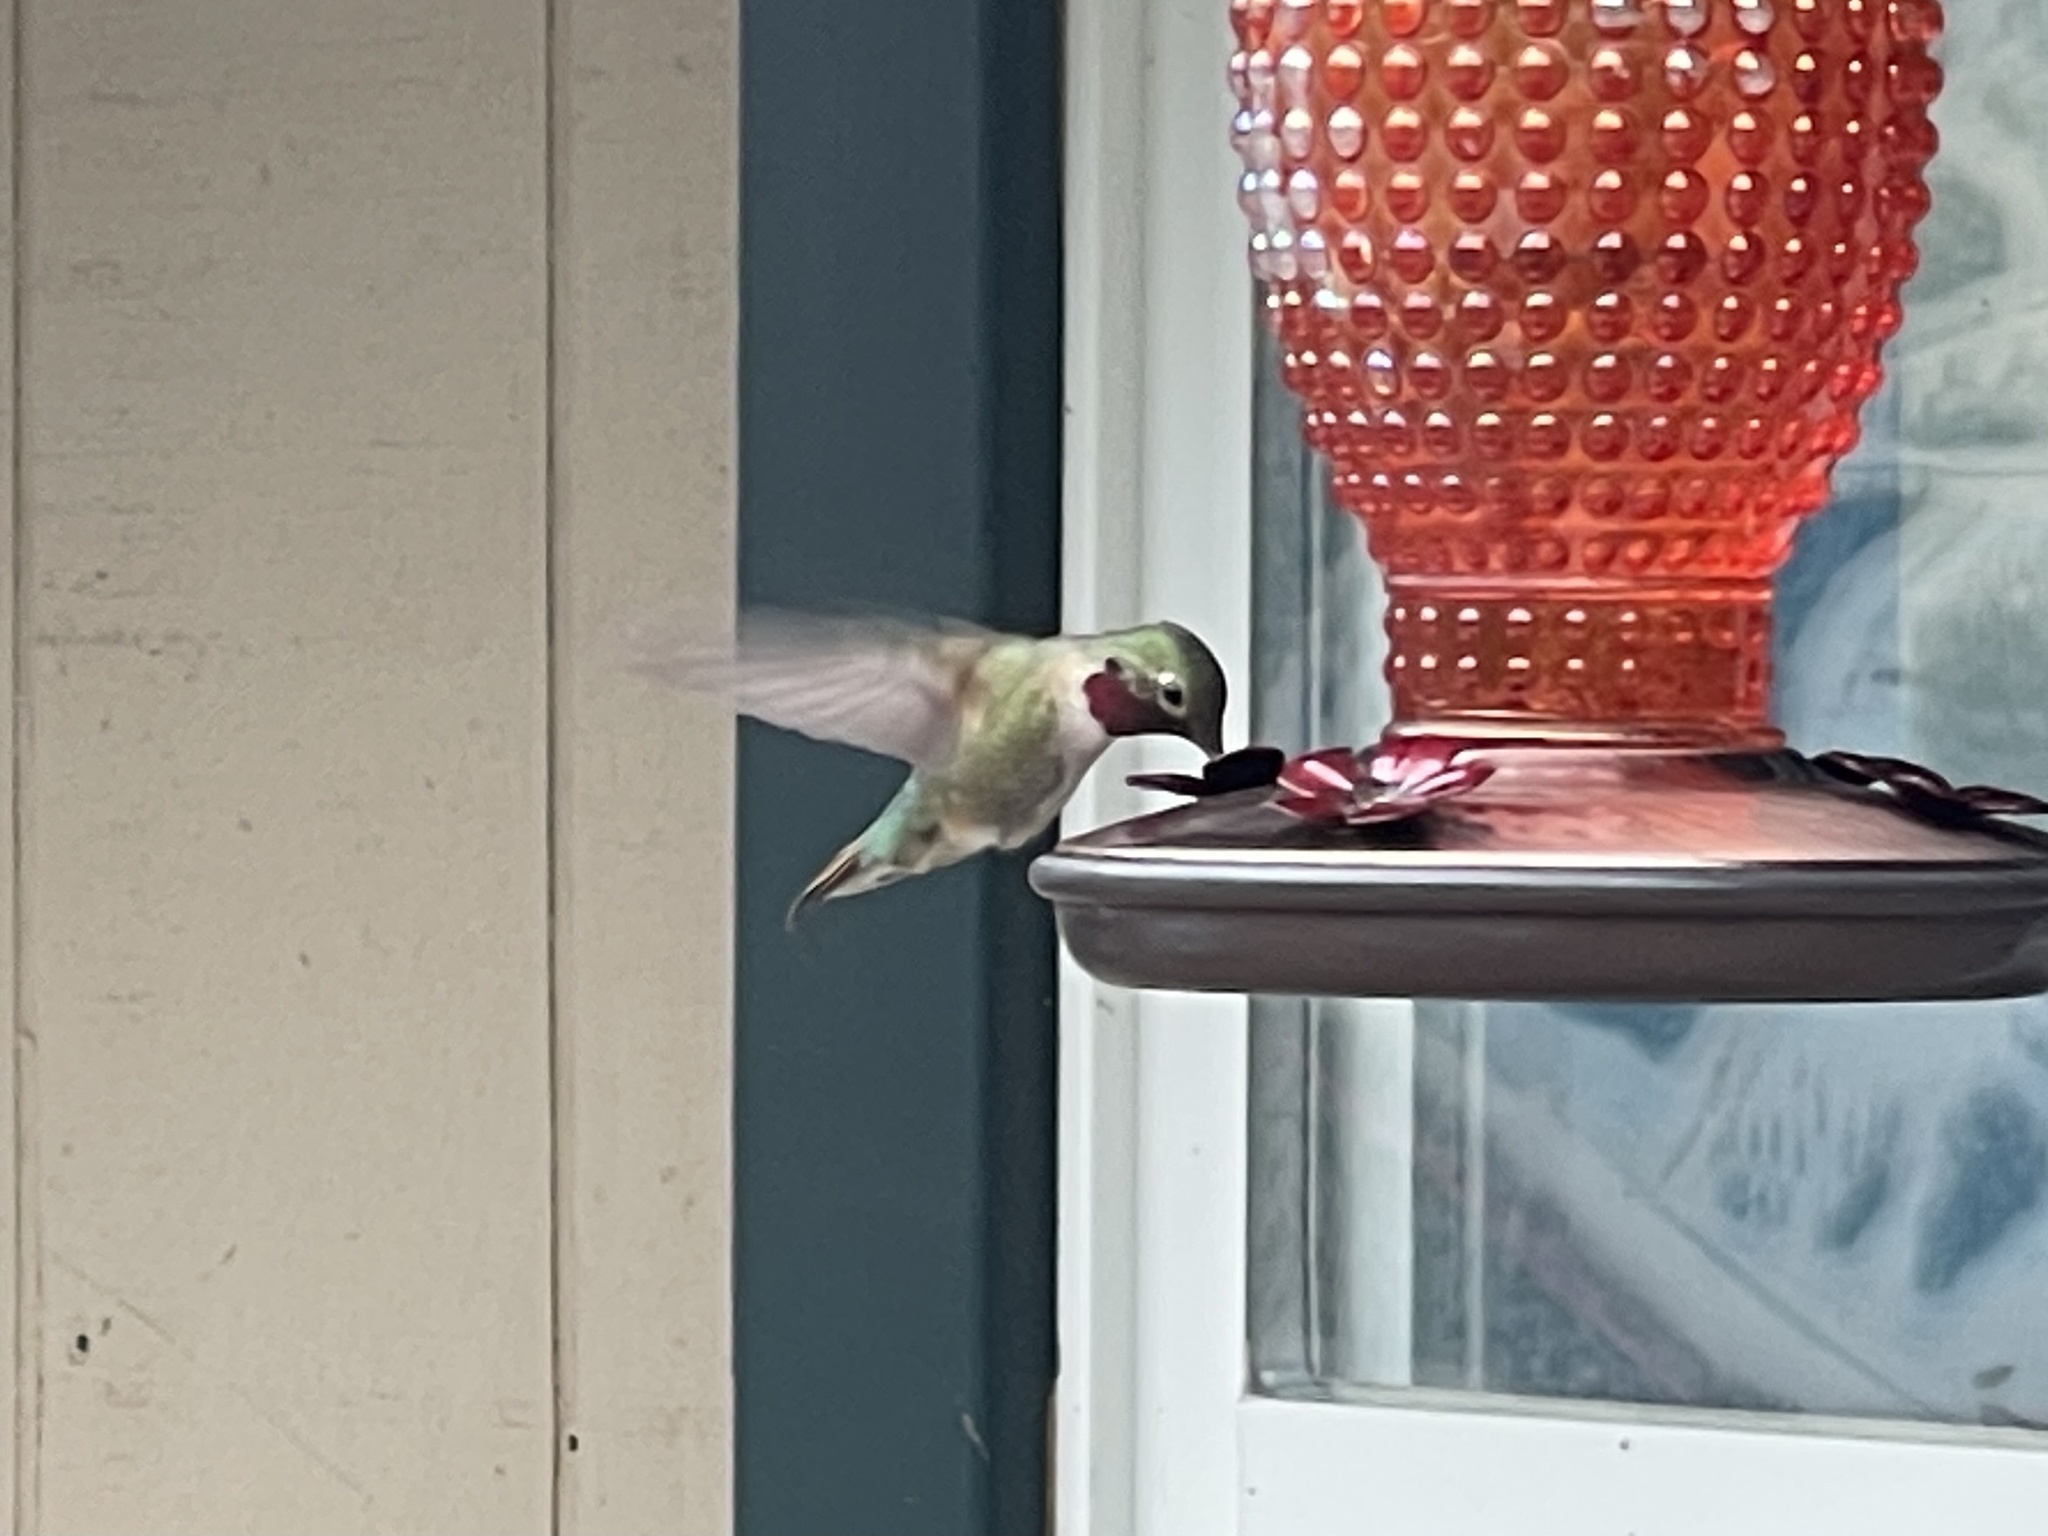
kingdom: Animalia
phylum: Chordata
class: Aves
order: Apodiformes
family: Trochilidae
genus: Selasphorus
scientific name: Selasphorus platycercus
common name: Broad-tailed hummingbird
